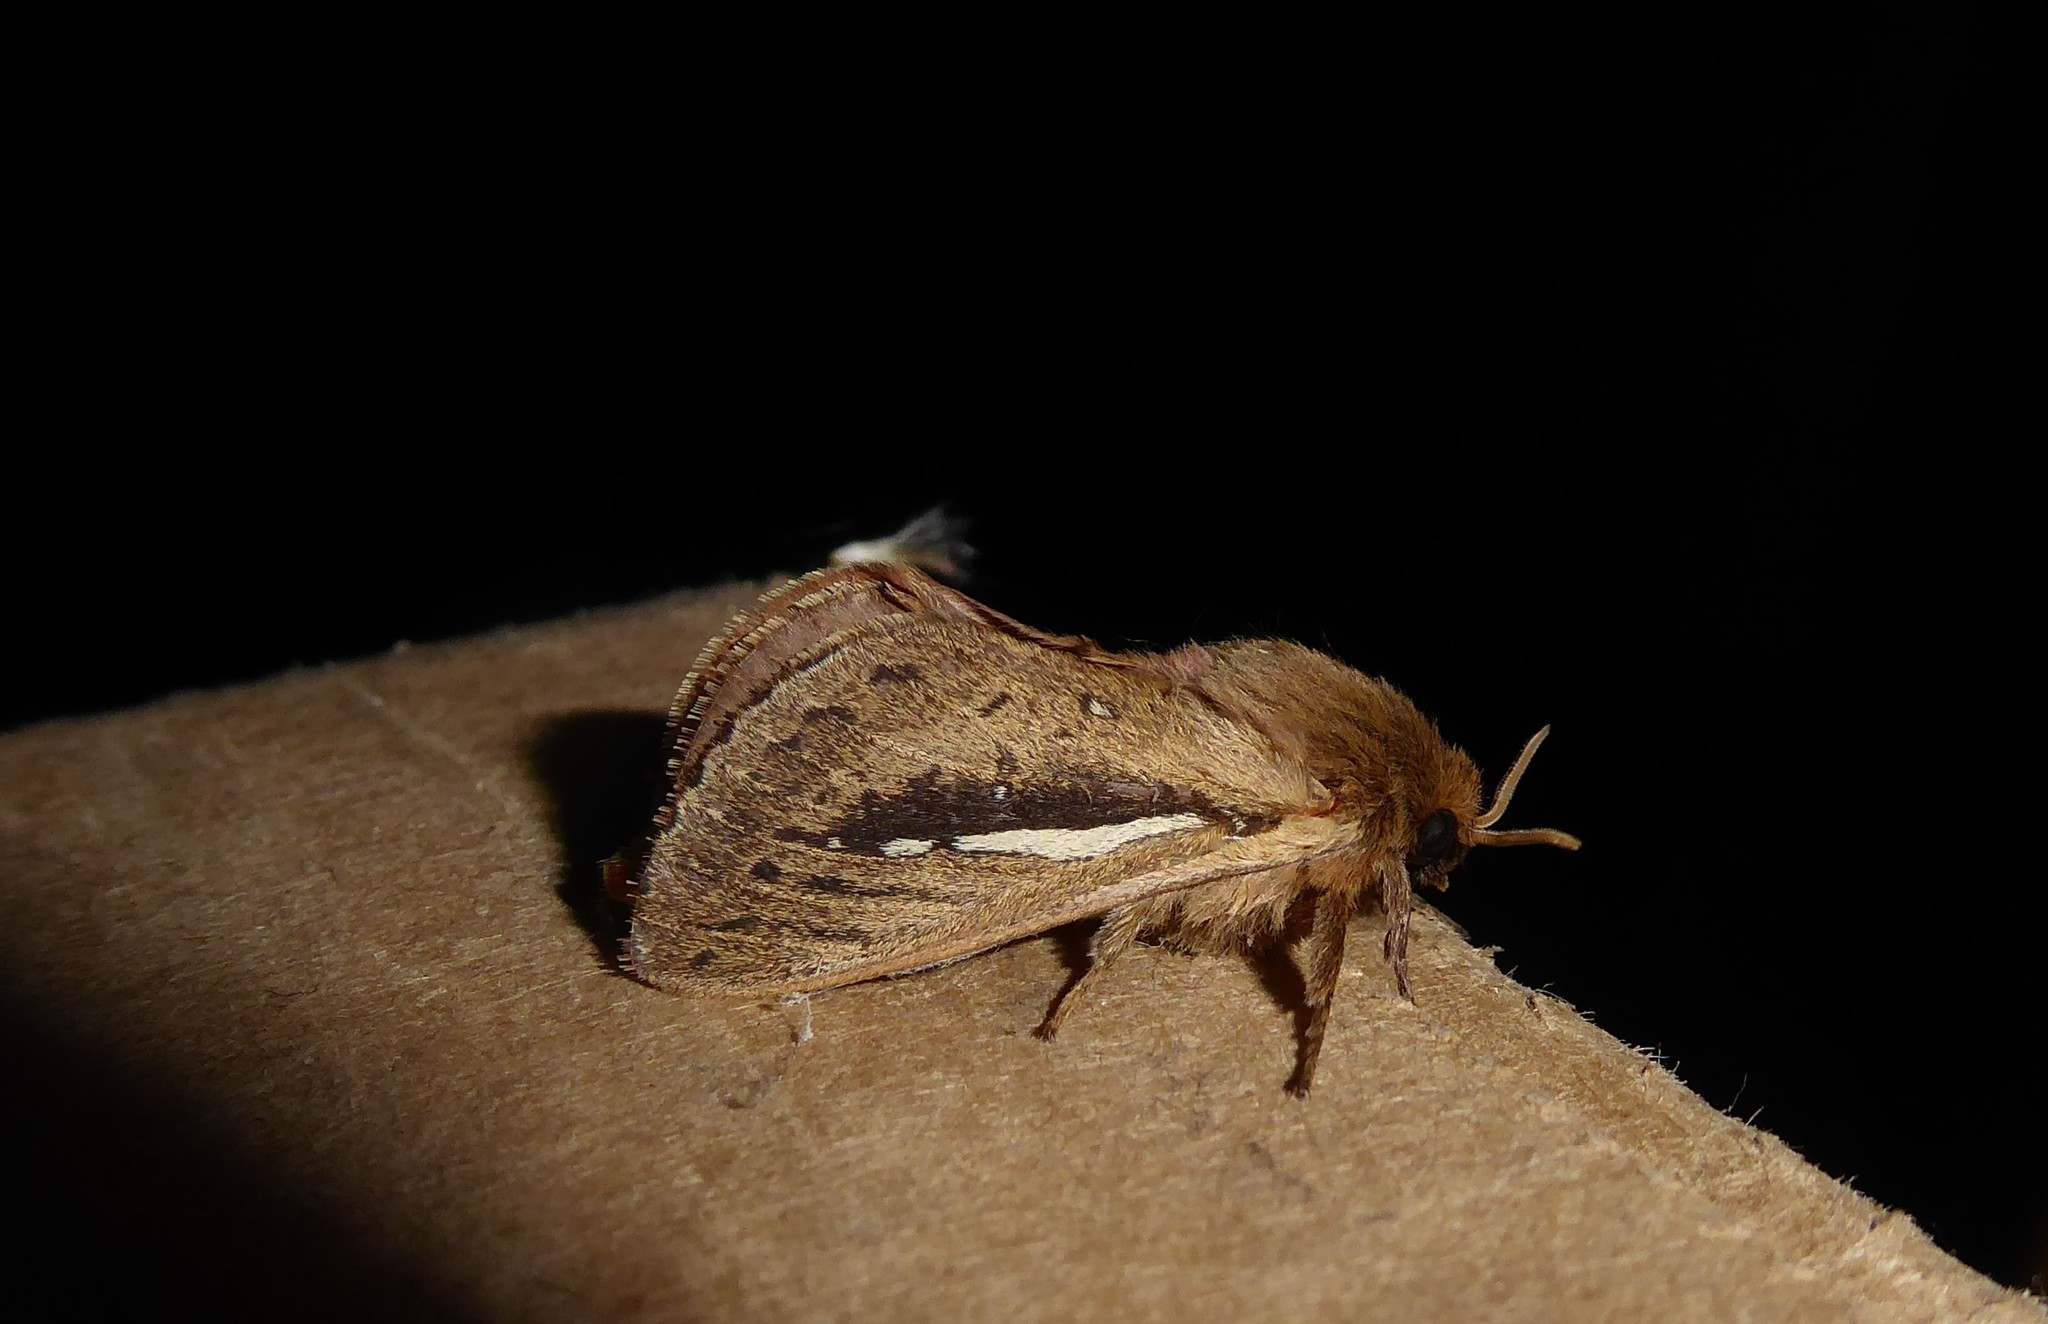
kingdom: Animalia
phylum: Arthropoda
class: Insecta
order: Lepidoptera
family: Hepialidae
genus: Wiseana
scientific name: Wiseana umbraculatus
